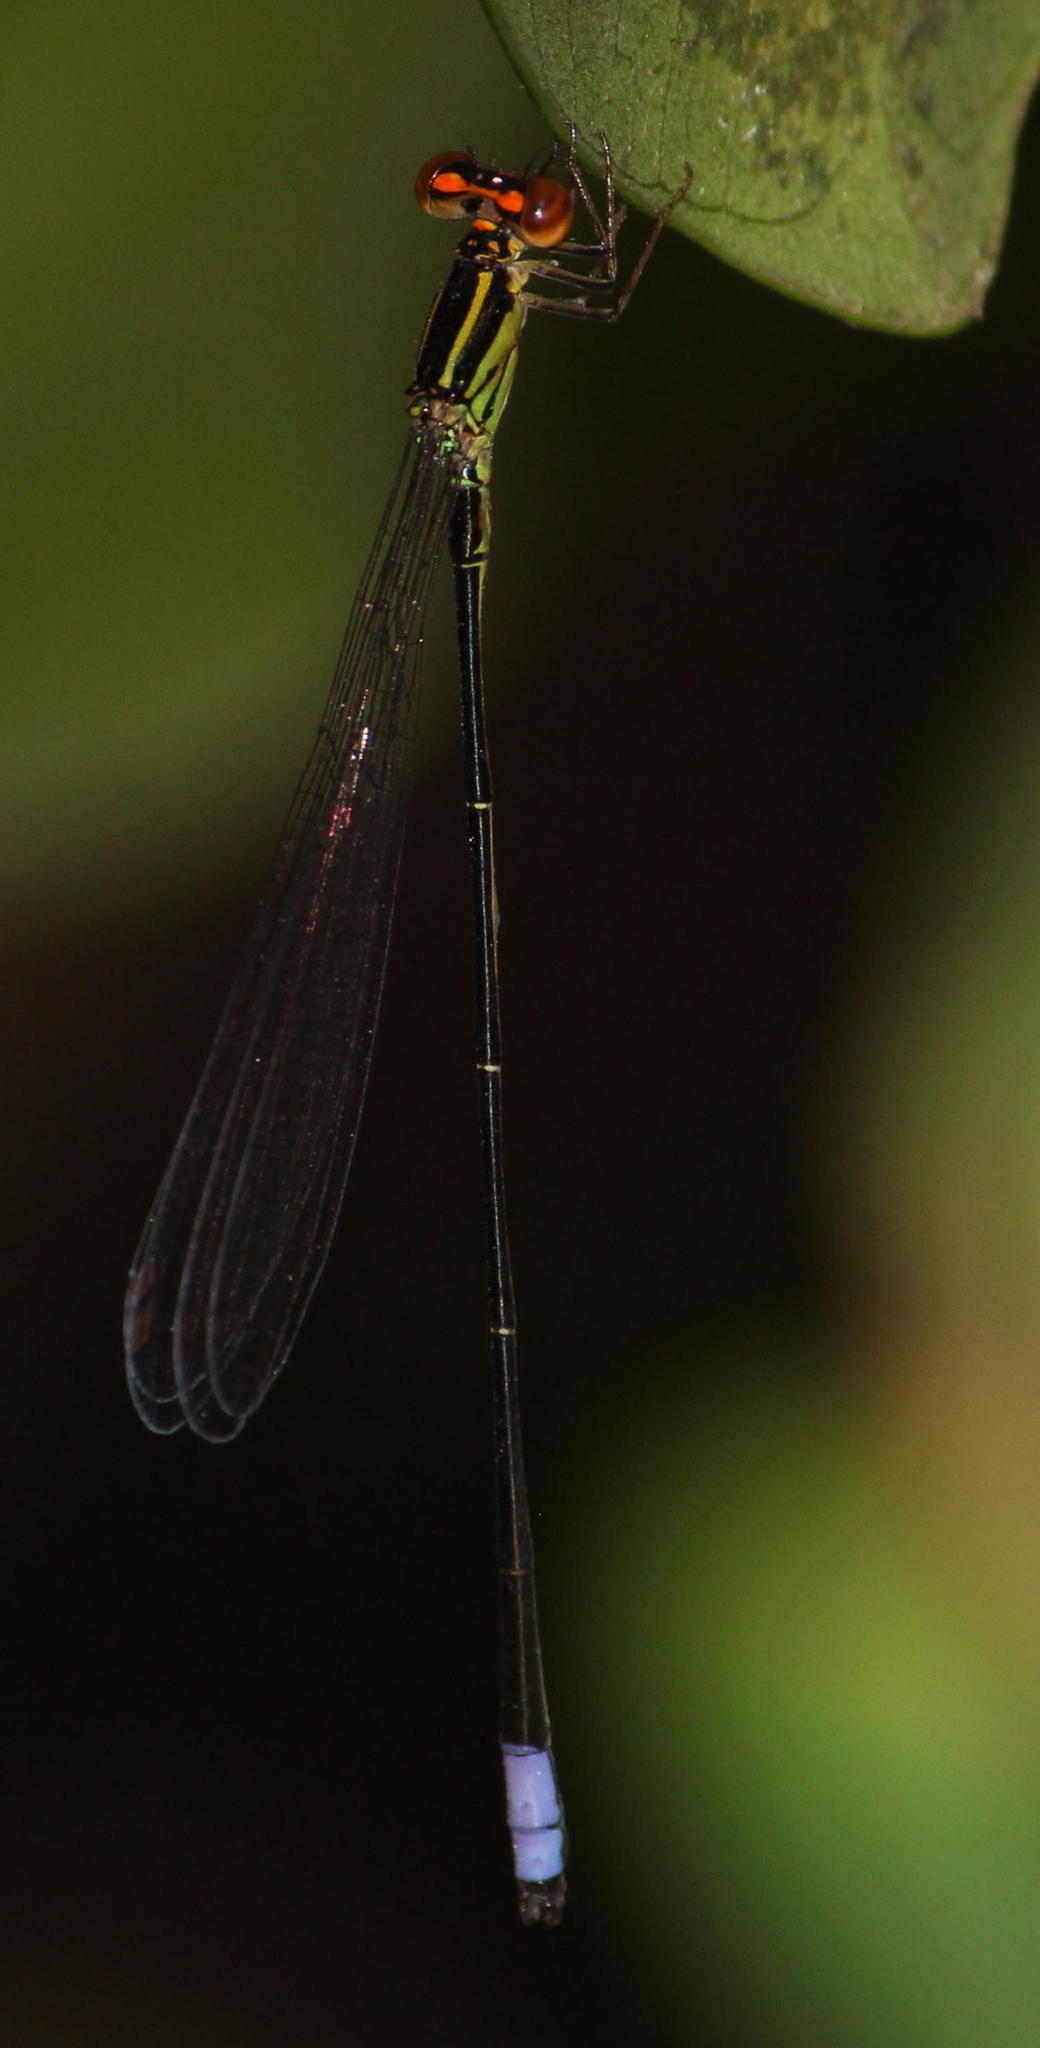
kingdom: Animalia
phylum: Arthropoda
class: Insecta
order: Odonata
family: Coenagrionidae
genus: Pseudagrion
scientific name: Pseudagrion hageni
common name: Painted sprite
